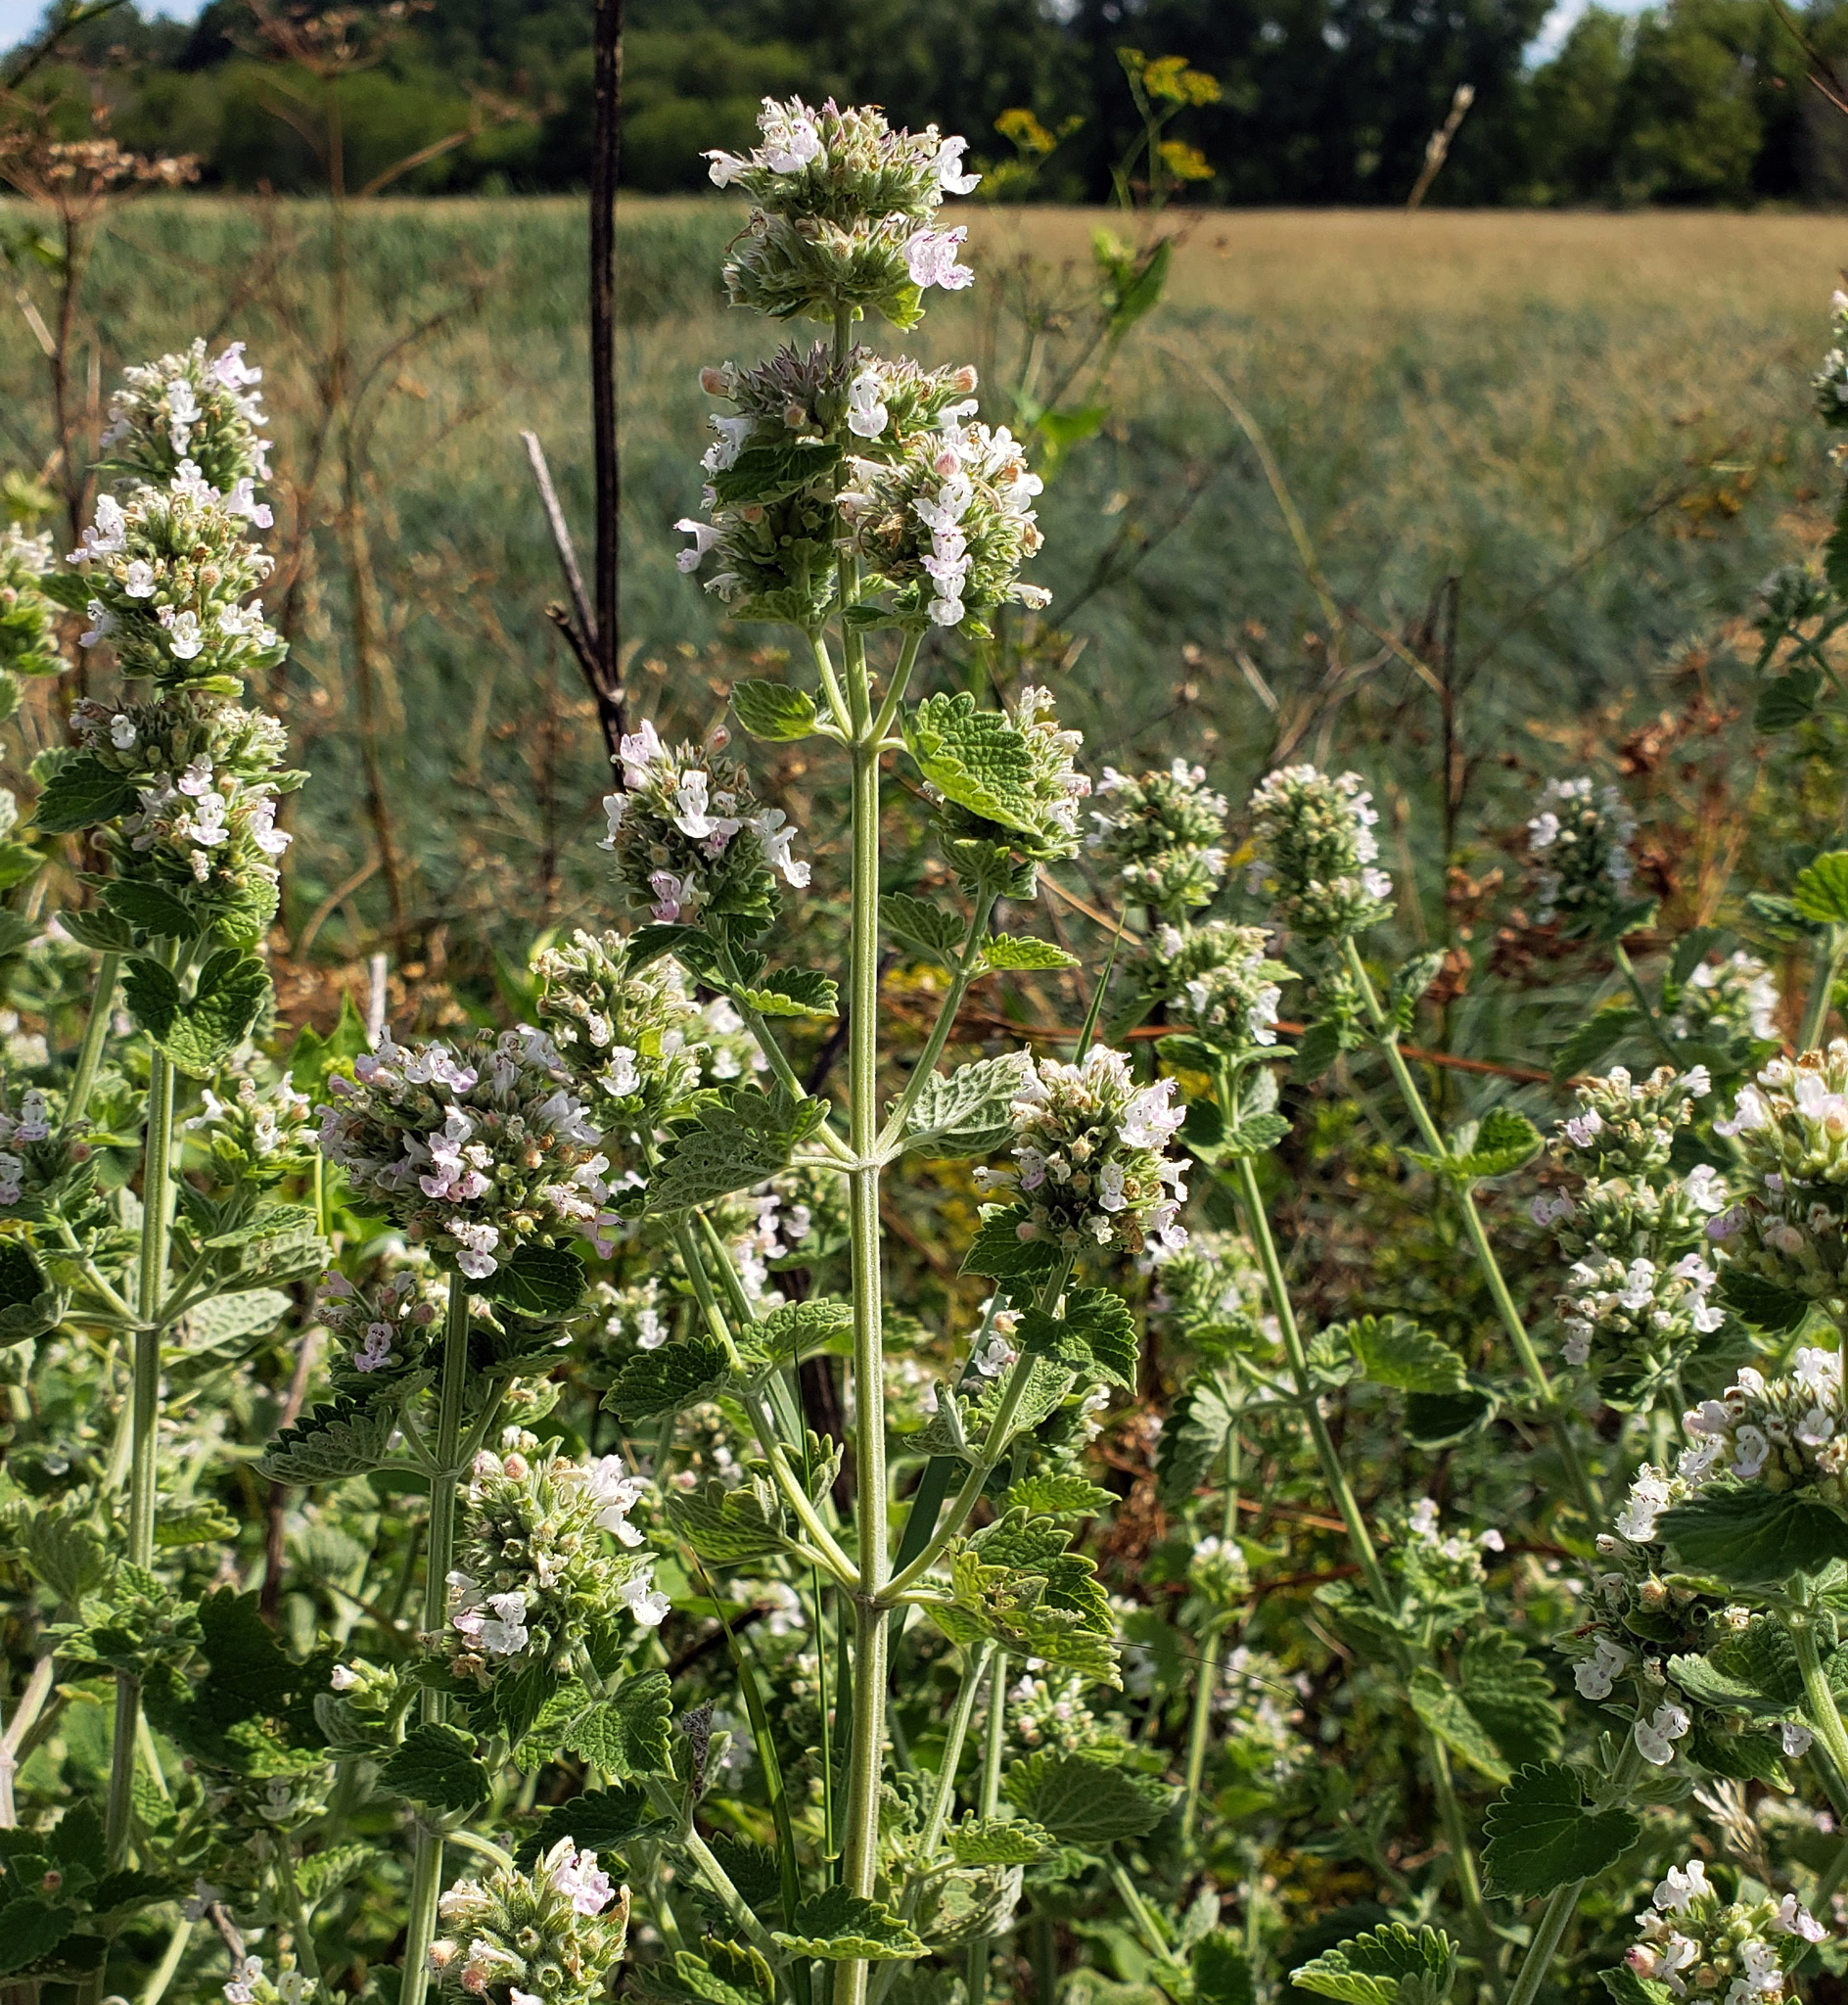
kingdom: Plantae
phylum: Tracheophyta
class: Magnoliopsida
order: Lamiales
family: Lamiaceae
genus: Nepeta
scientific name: Nepeta cataria
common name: Catnip
